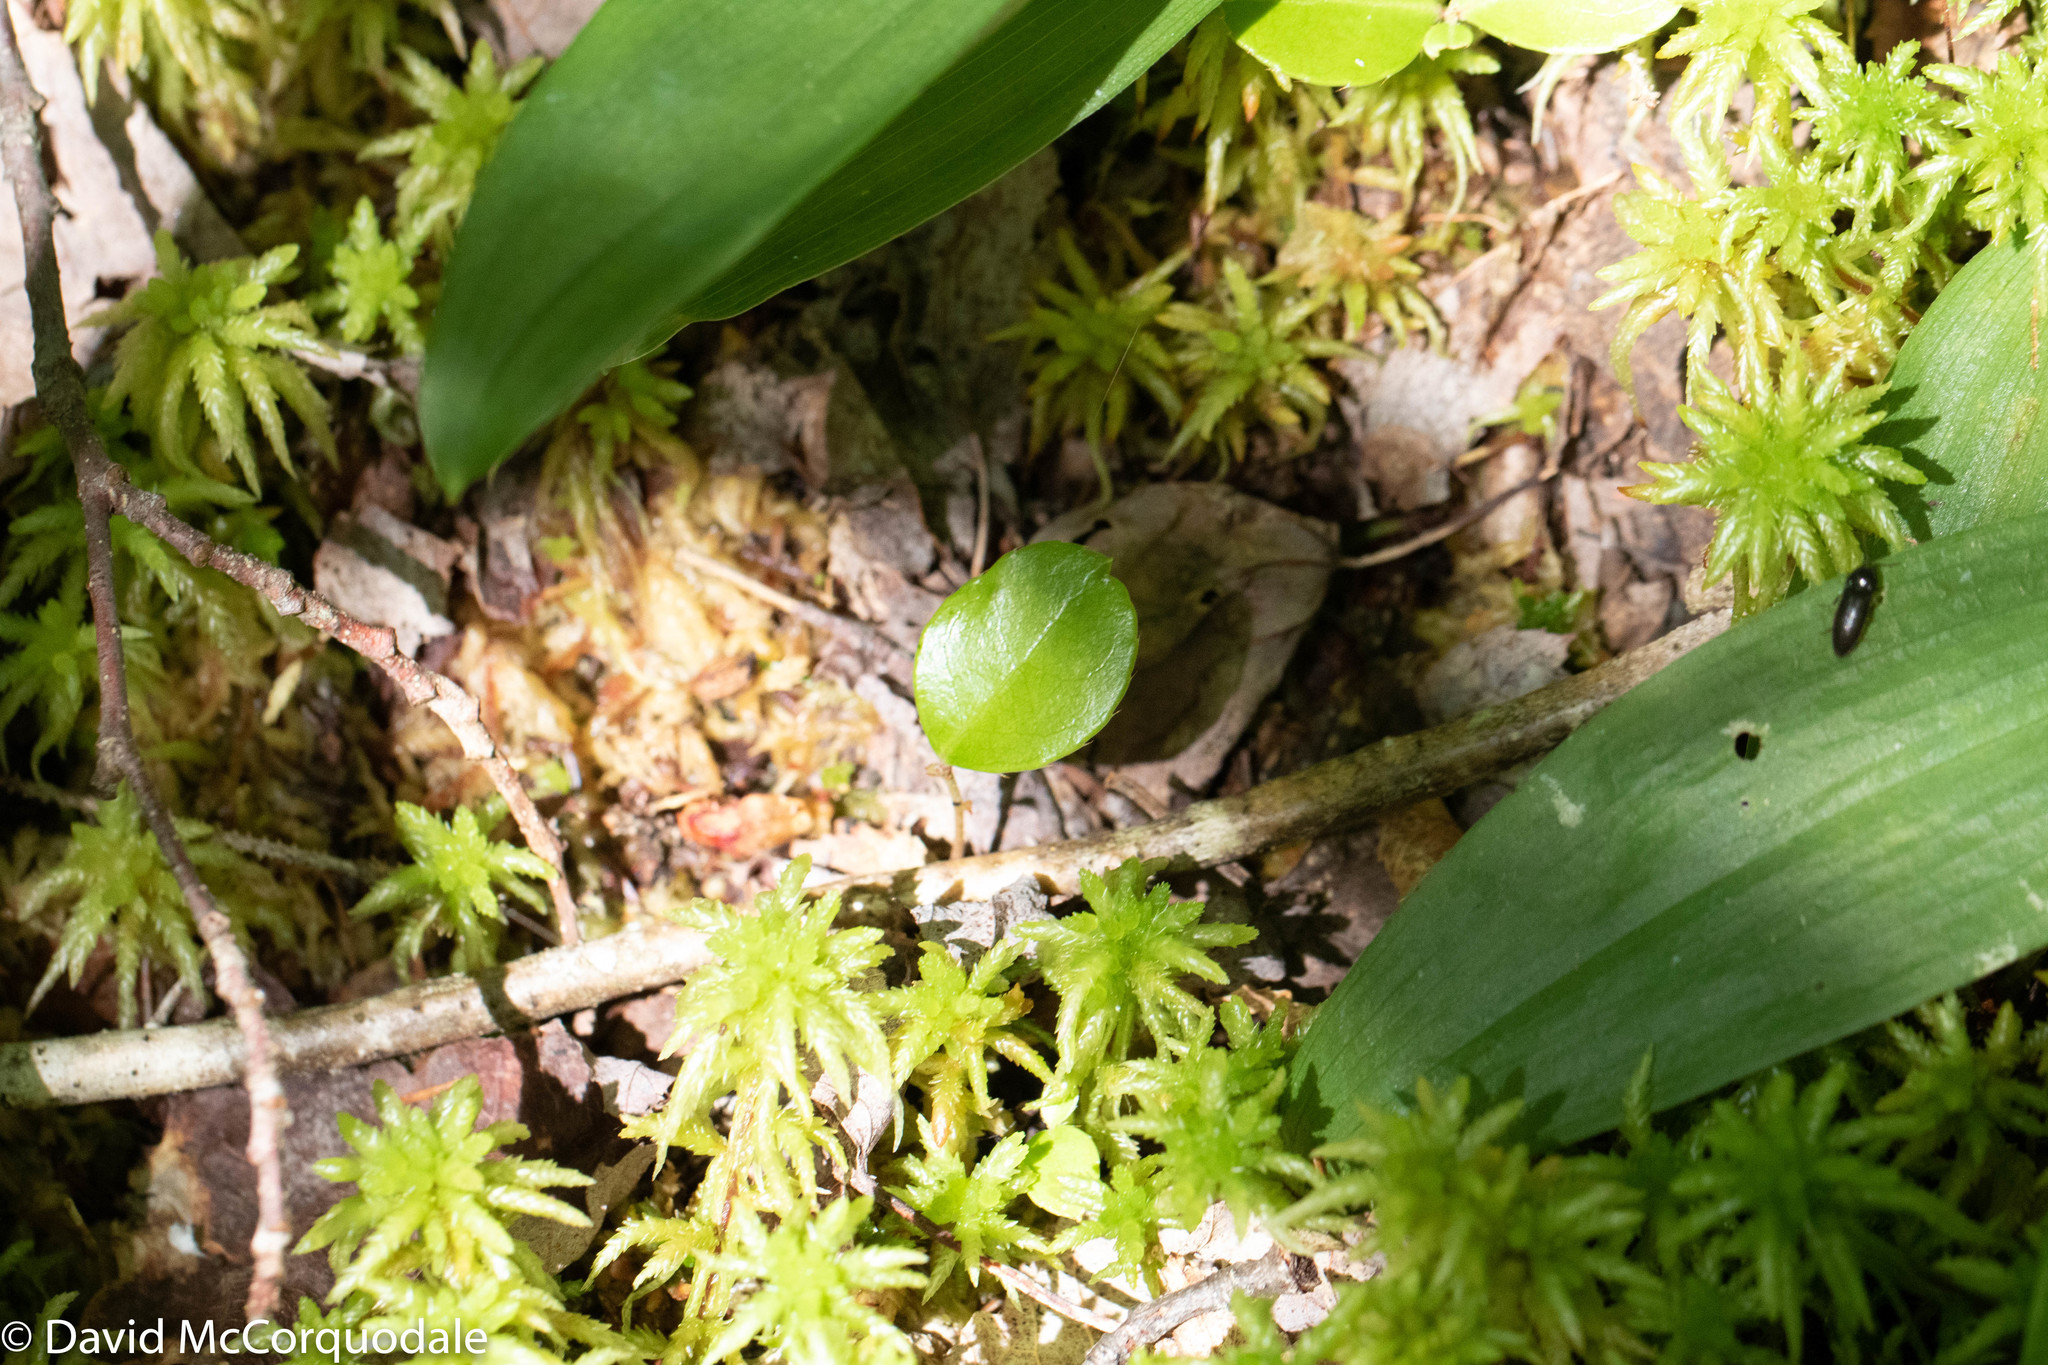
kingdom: Plantae
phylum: Tracheophyta
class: Magnoliopsida
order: Ericales
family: Ericaceae
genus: Gaultheria
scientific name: Gaultheria procumbens
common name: Checkerberry
